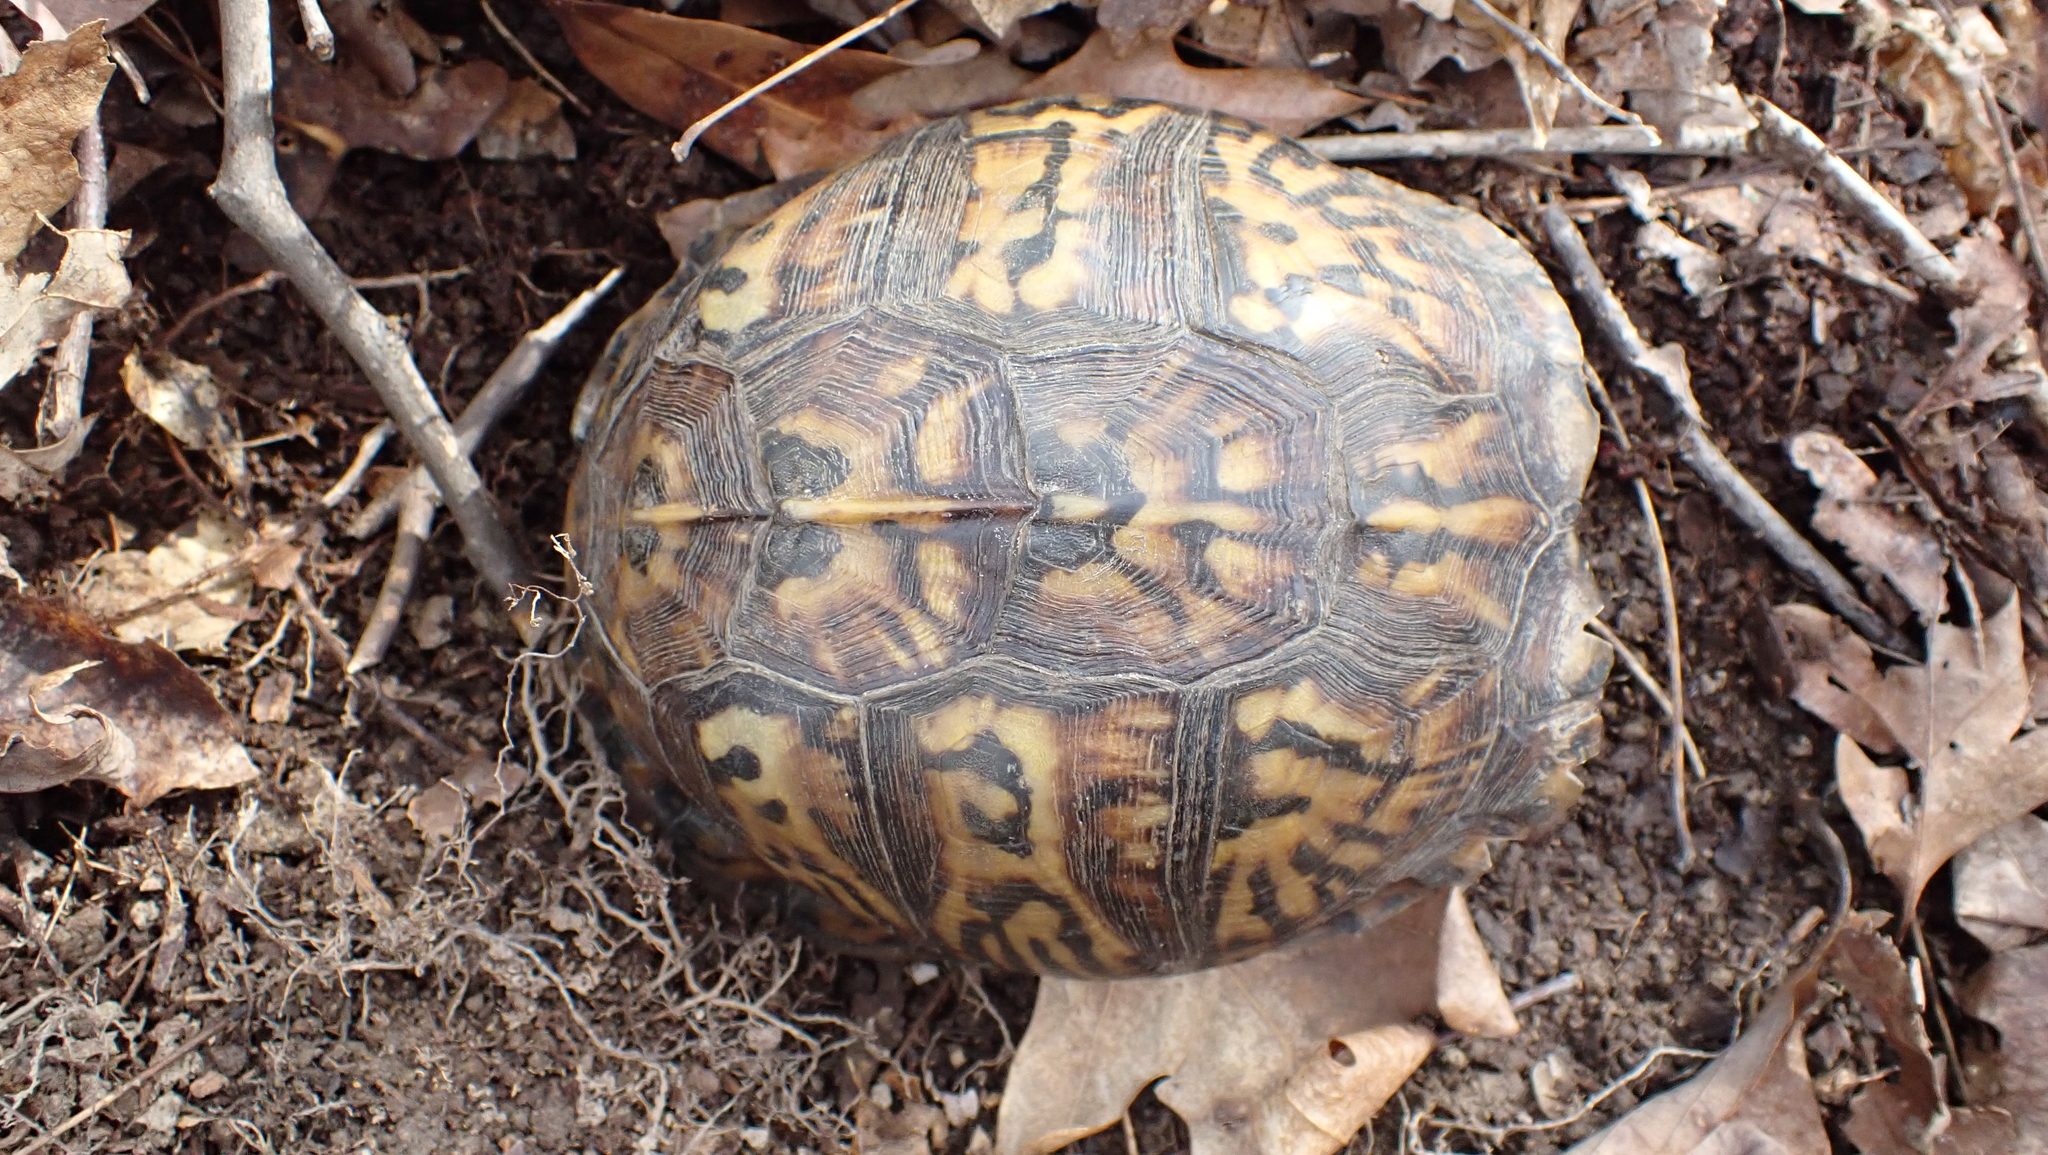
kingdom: Animalia
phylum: Chordata
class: Testudines
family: Emydidae
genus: Terrapene
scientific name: Terrapene carolina
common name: Common box turtle
